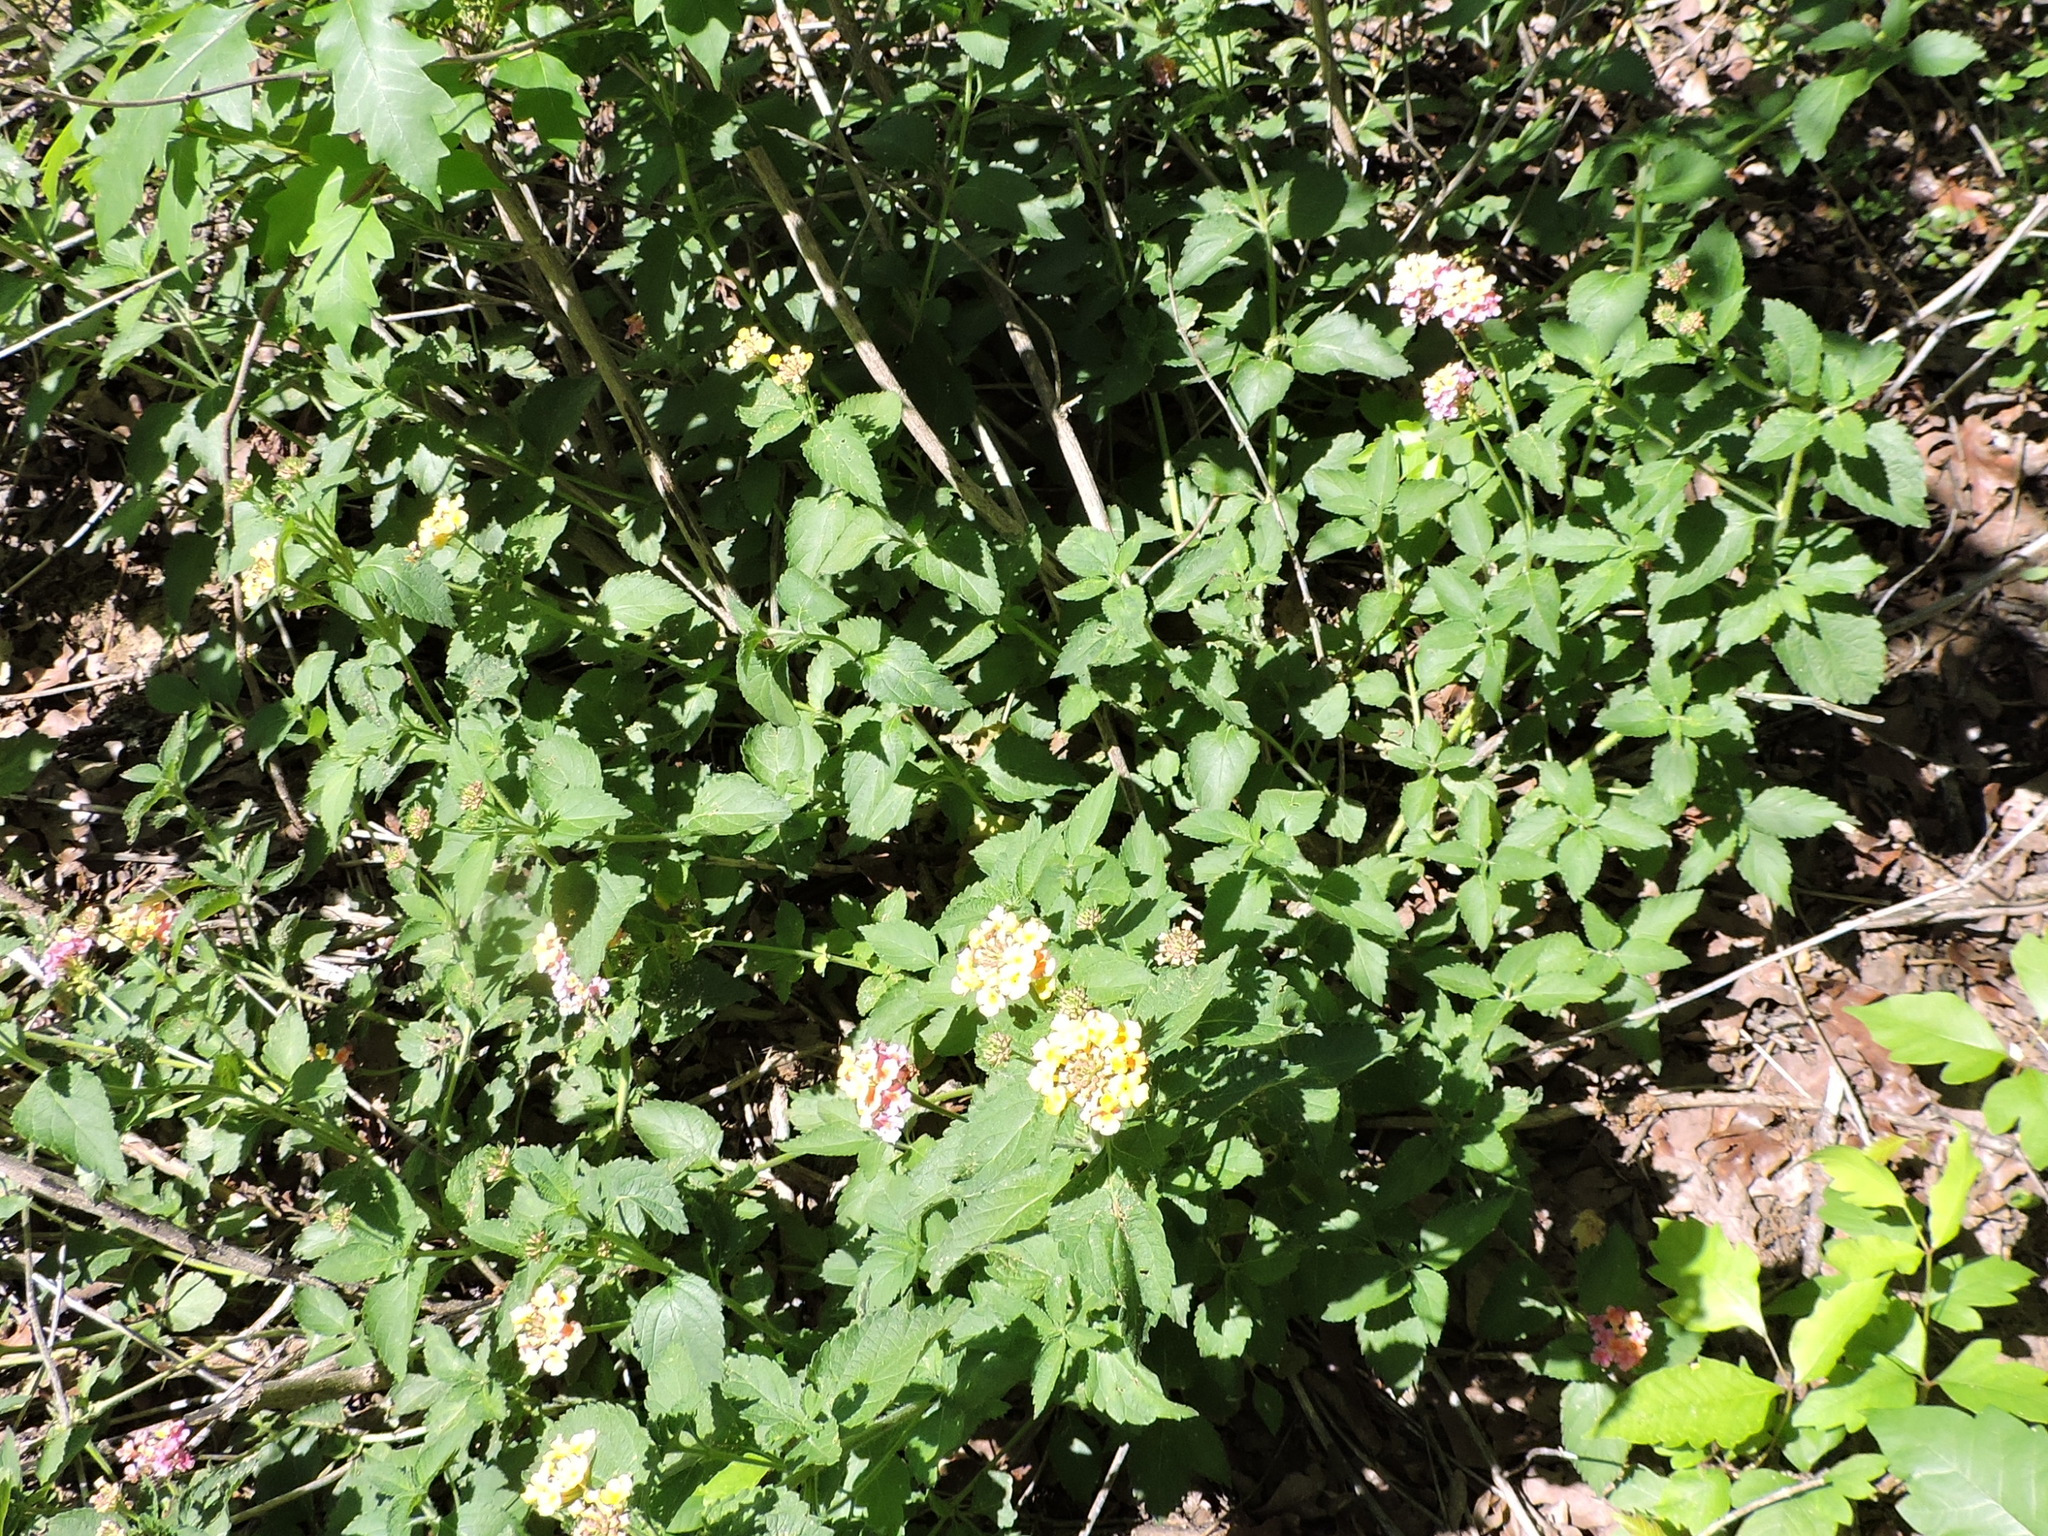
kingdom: Plantae
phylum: Tracheophyta
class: Magnoliopsida
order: Lamiales
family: Verbenaceae
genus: Lantana
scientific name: Lantana strigocamara
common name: Lantana
